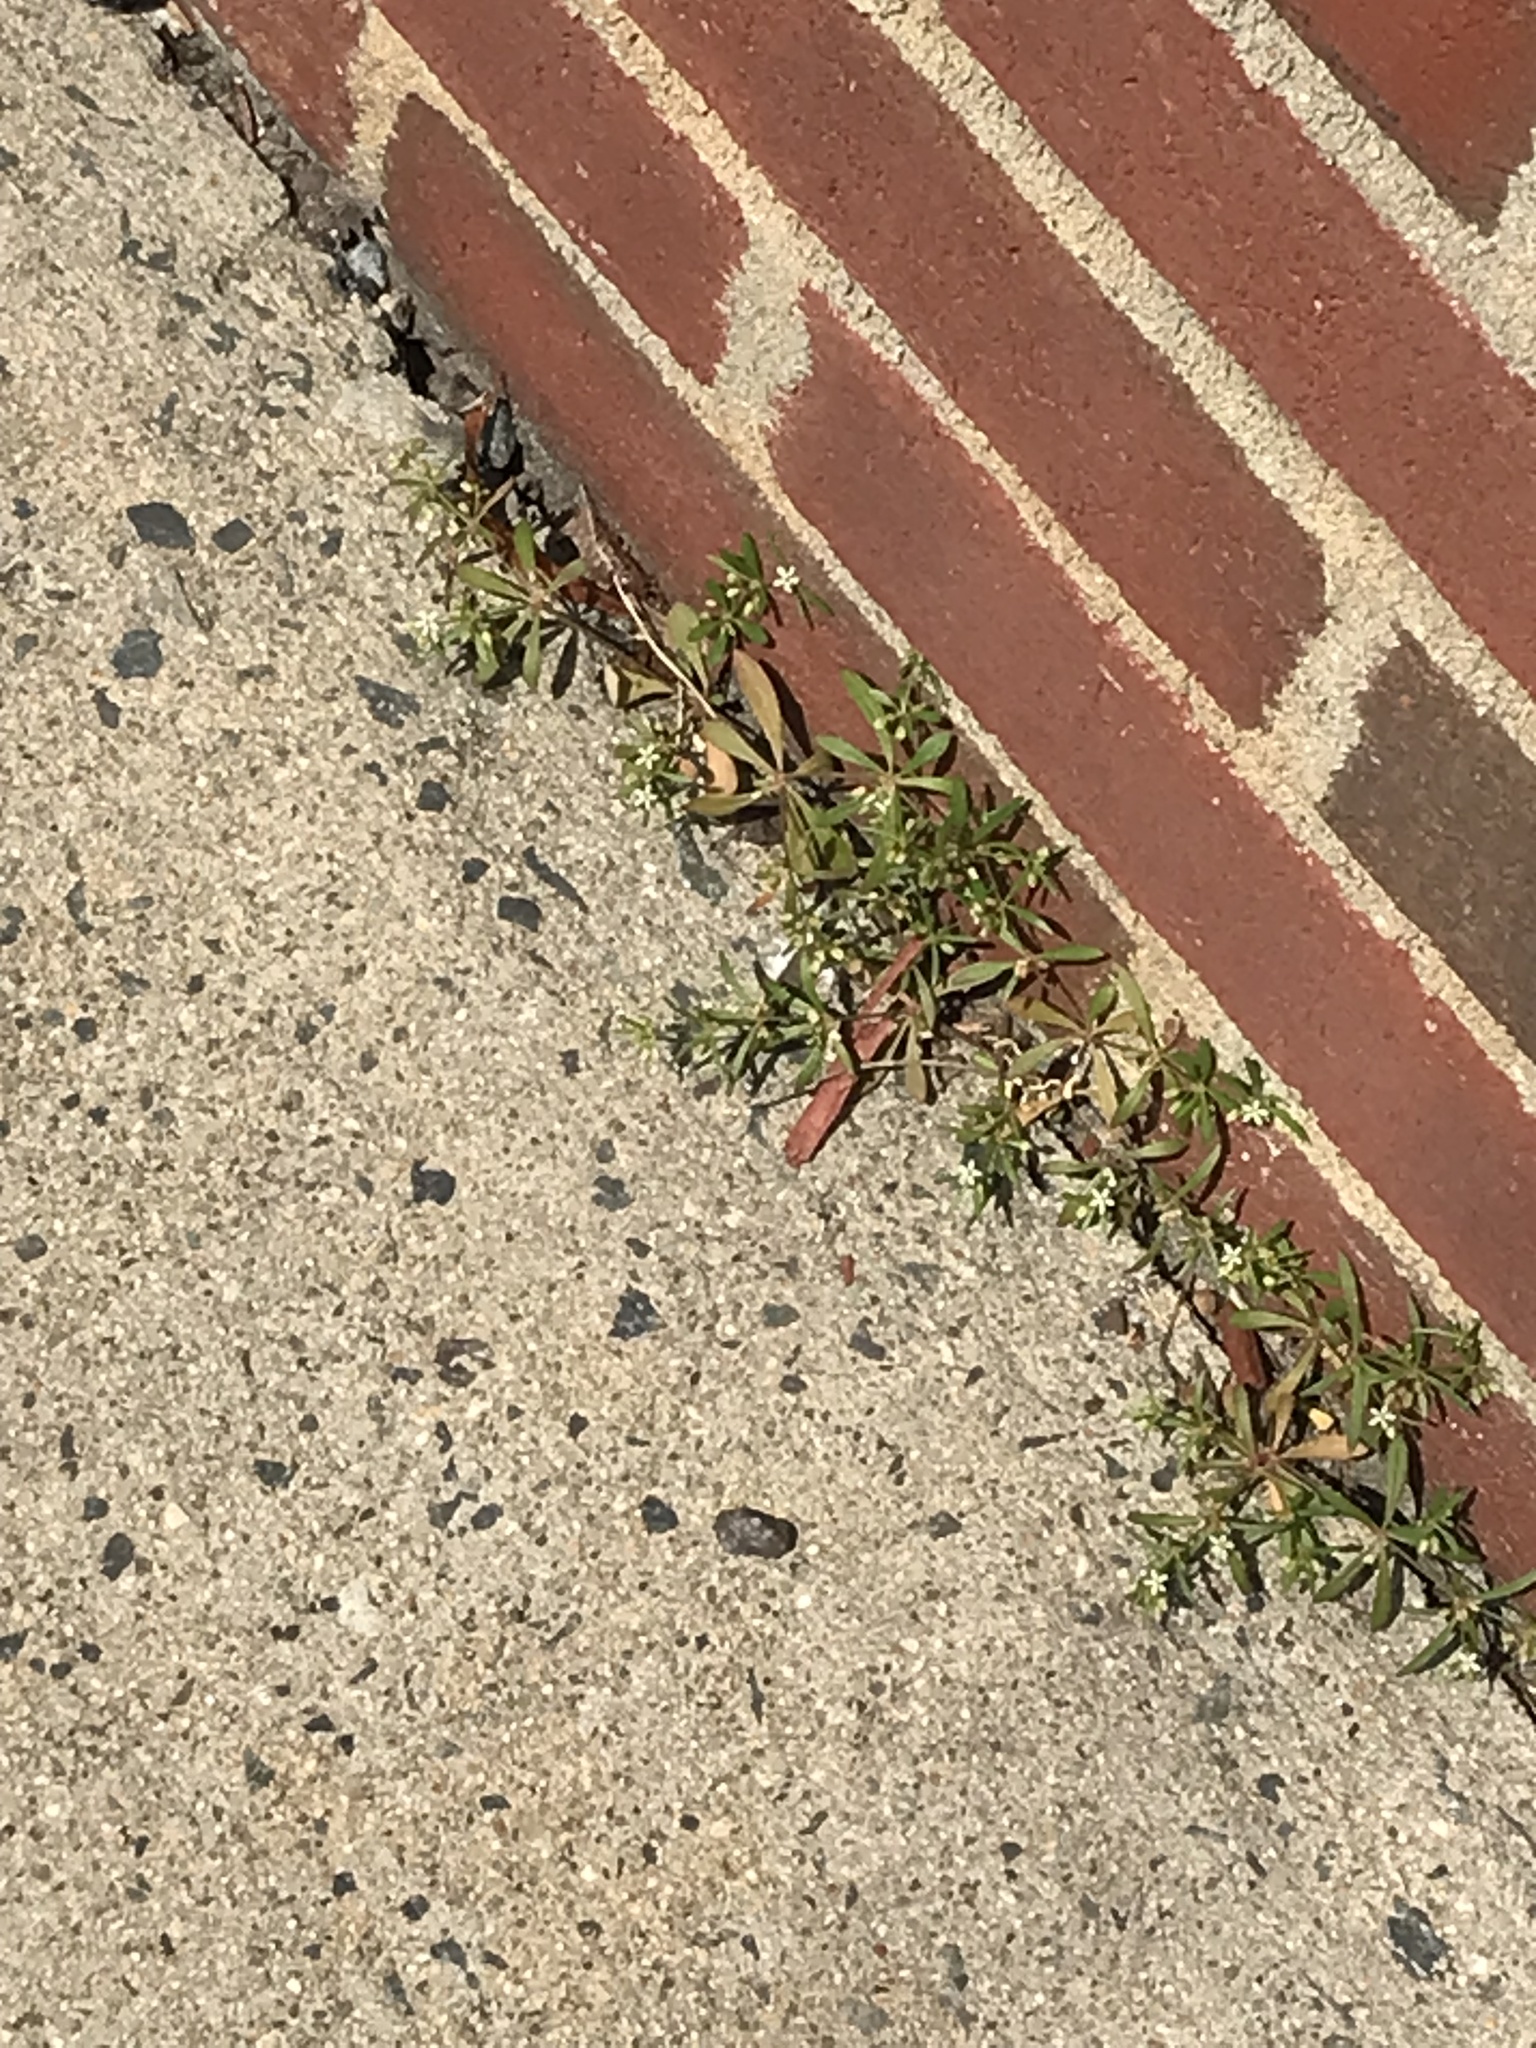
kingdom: Plantae
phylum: Tracheophyta
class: Magnoliopsida
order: Caryophyllales
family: Molluginaceae
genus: Mollugo
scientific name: Mollugo verticillata
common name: Green carpetweed
